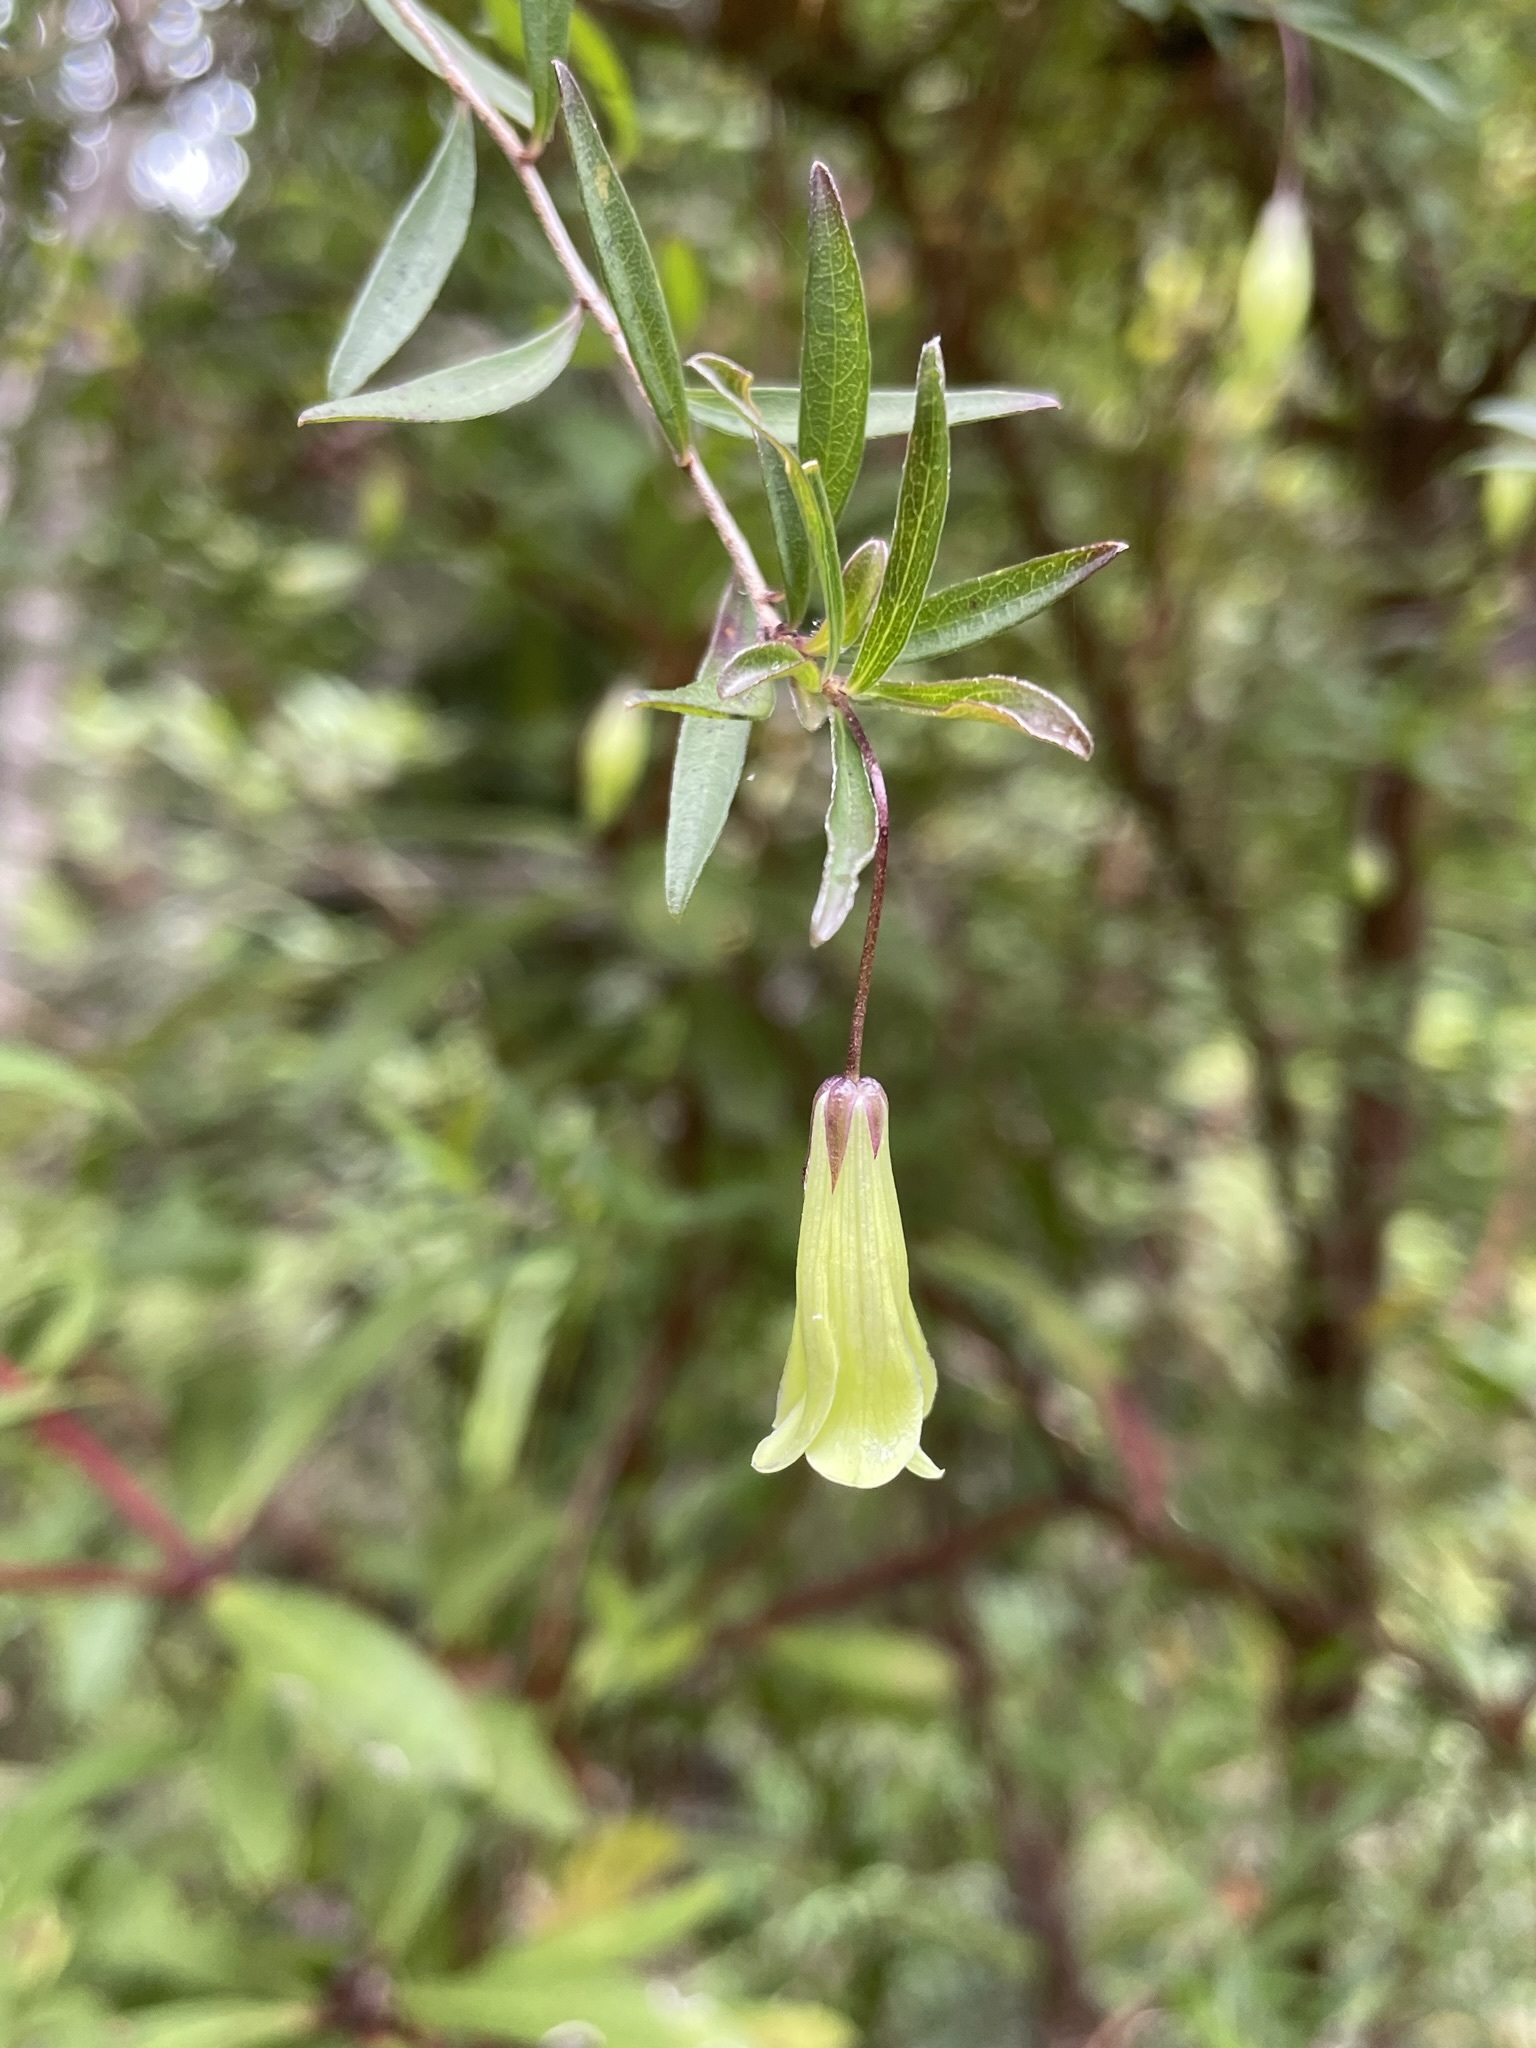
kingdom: Plantae
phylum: Tracheophyta
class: Magnoliopsida
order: Apiales
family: Pittosporaceae
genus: Billardiera
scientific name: Billardiera macrantha
